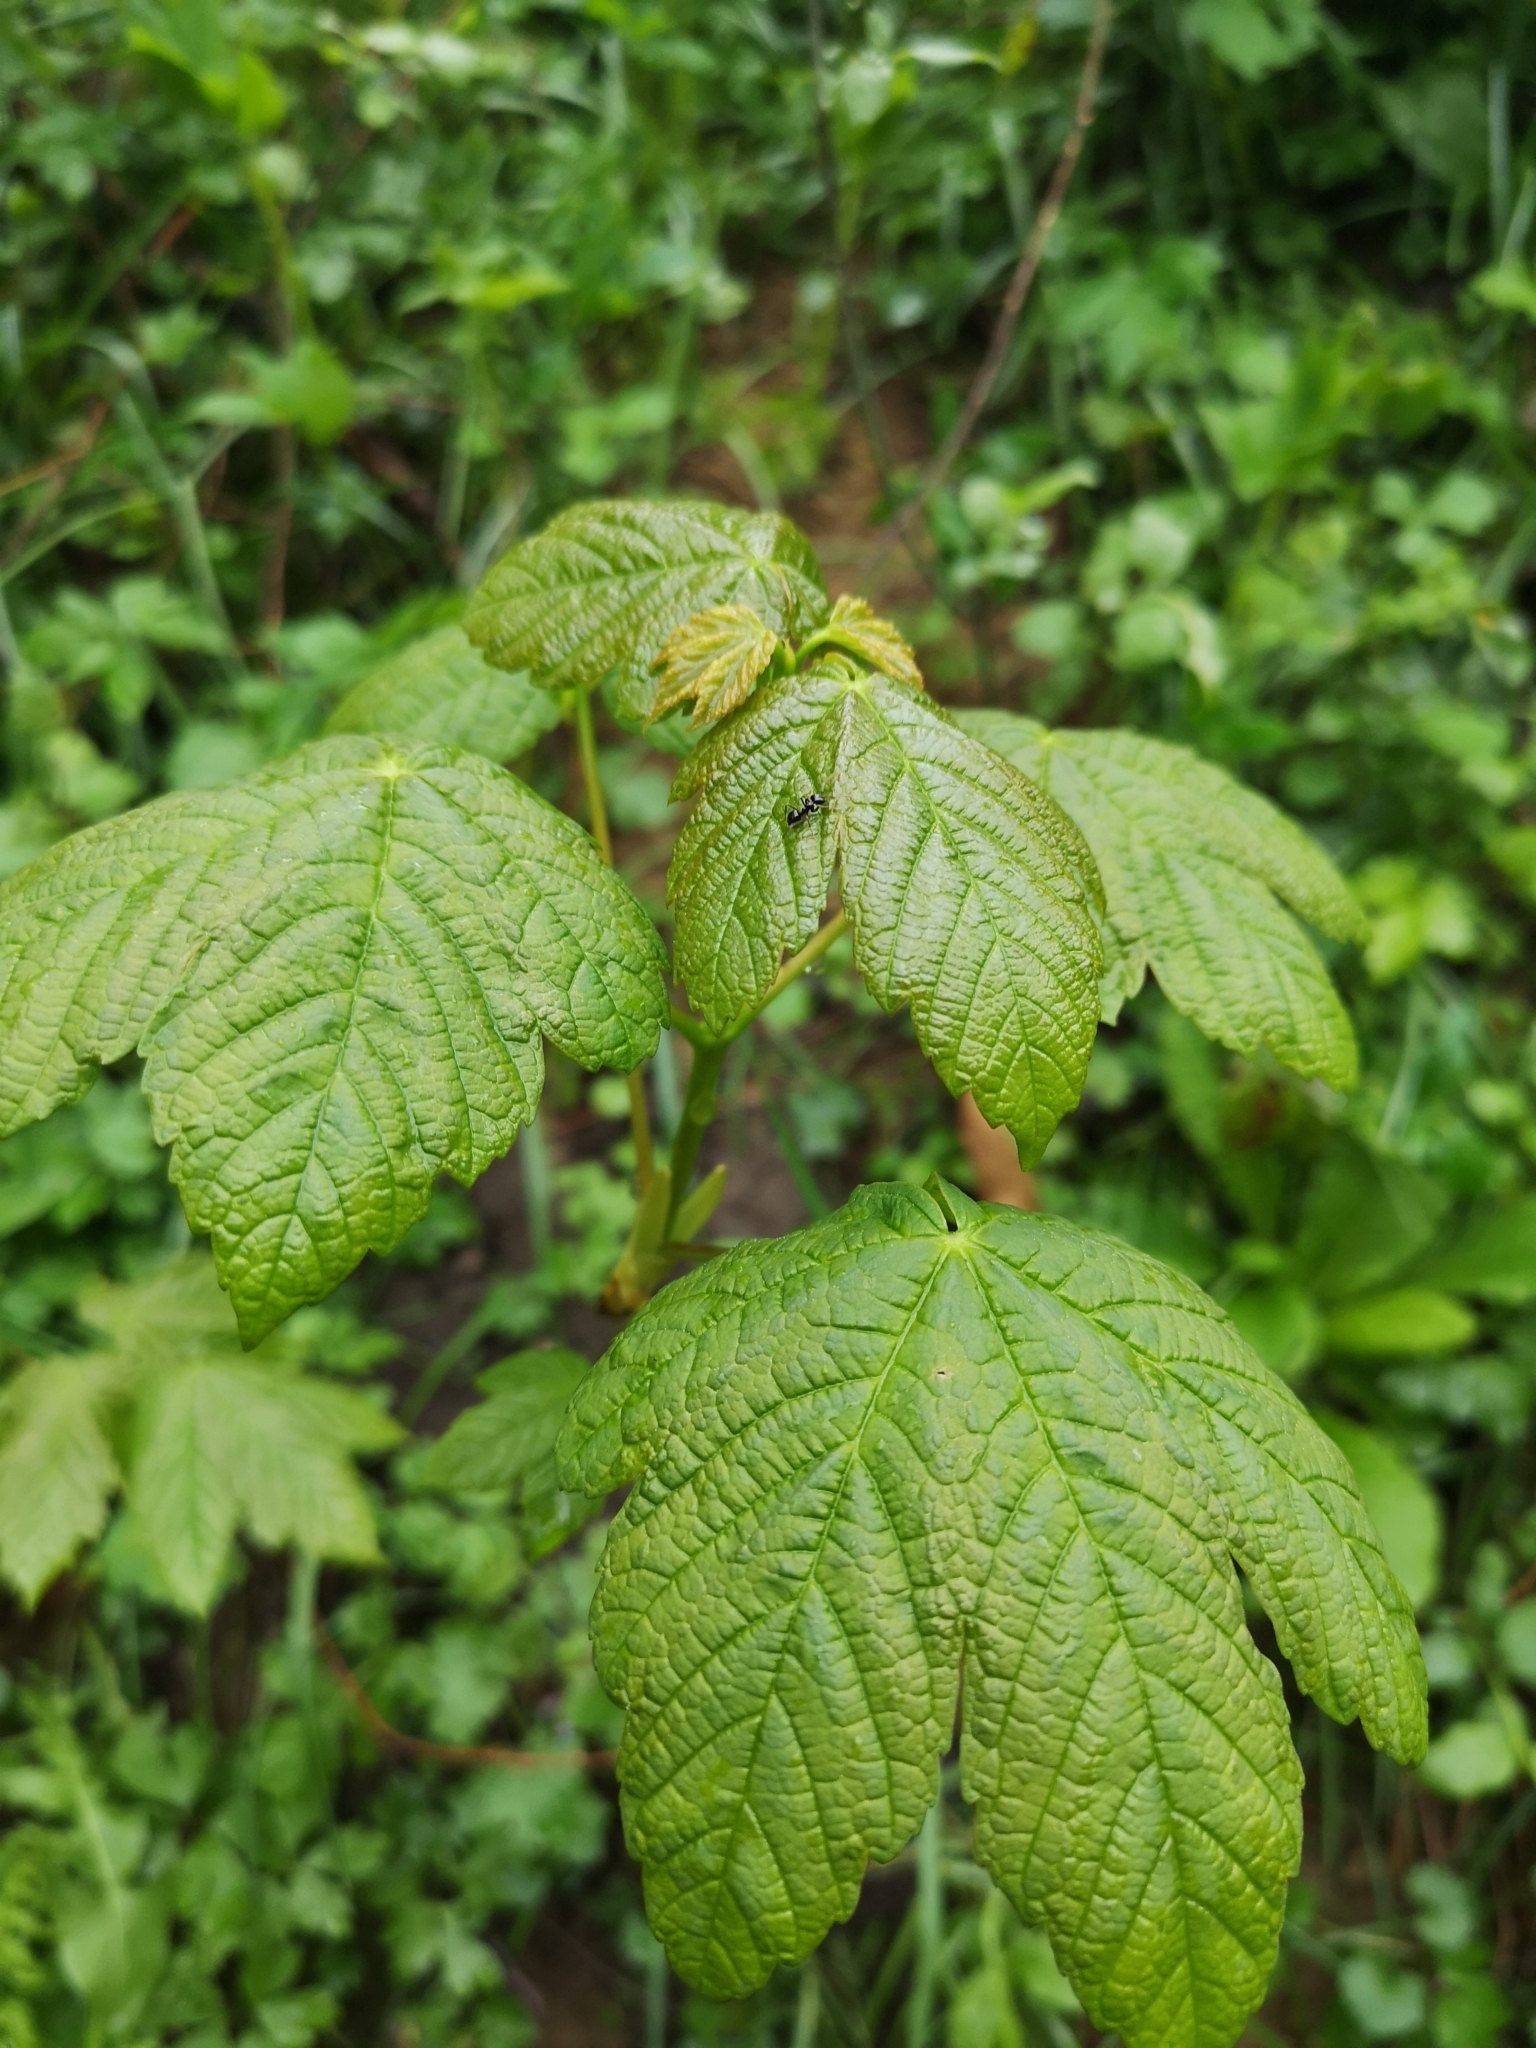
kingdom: Plantae
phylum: Tracheophyta
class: Magnoliopsida
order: Sapindales
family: Sapindaceae
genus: Acer
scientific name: Acer pseudoplatanus
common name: Sycamore
